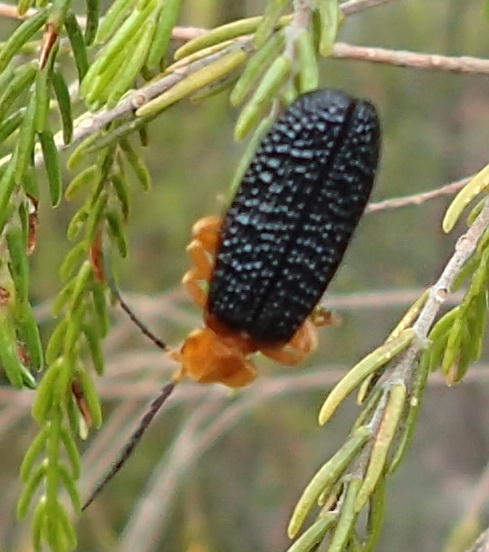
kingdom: Animalia
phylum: Arthropoda
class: Insecta
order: Coleoptera
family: Lycidae
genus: Staepteron
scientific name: Staepteron
